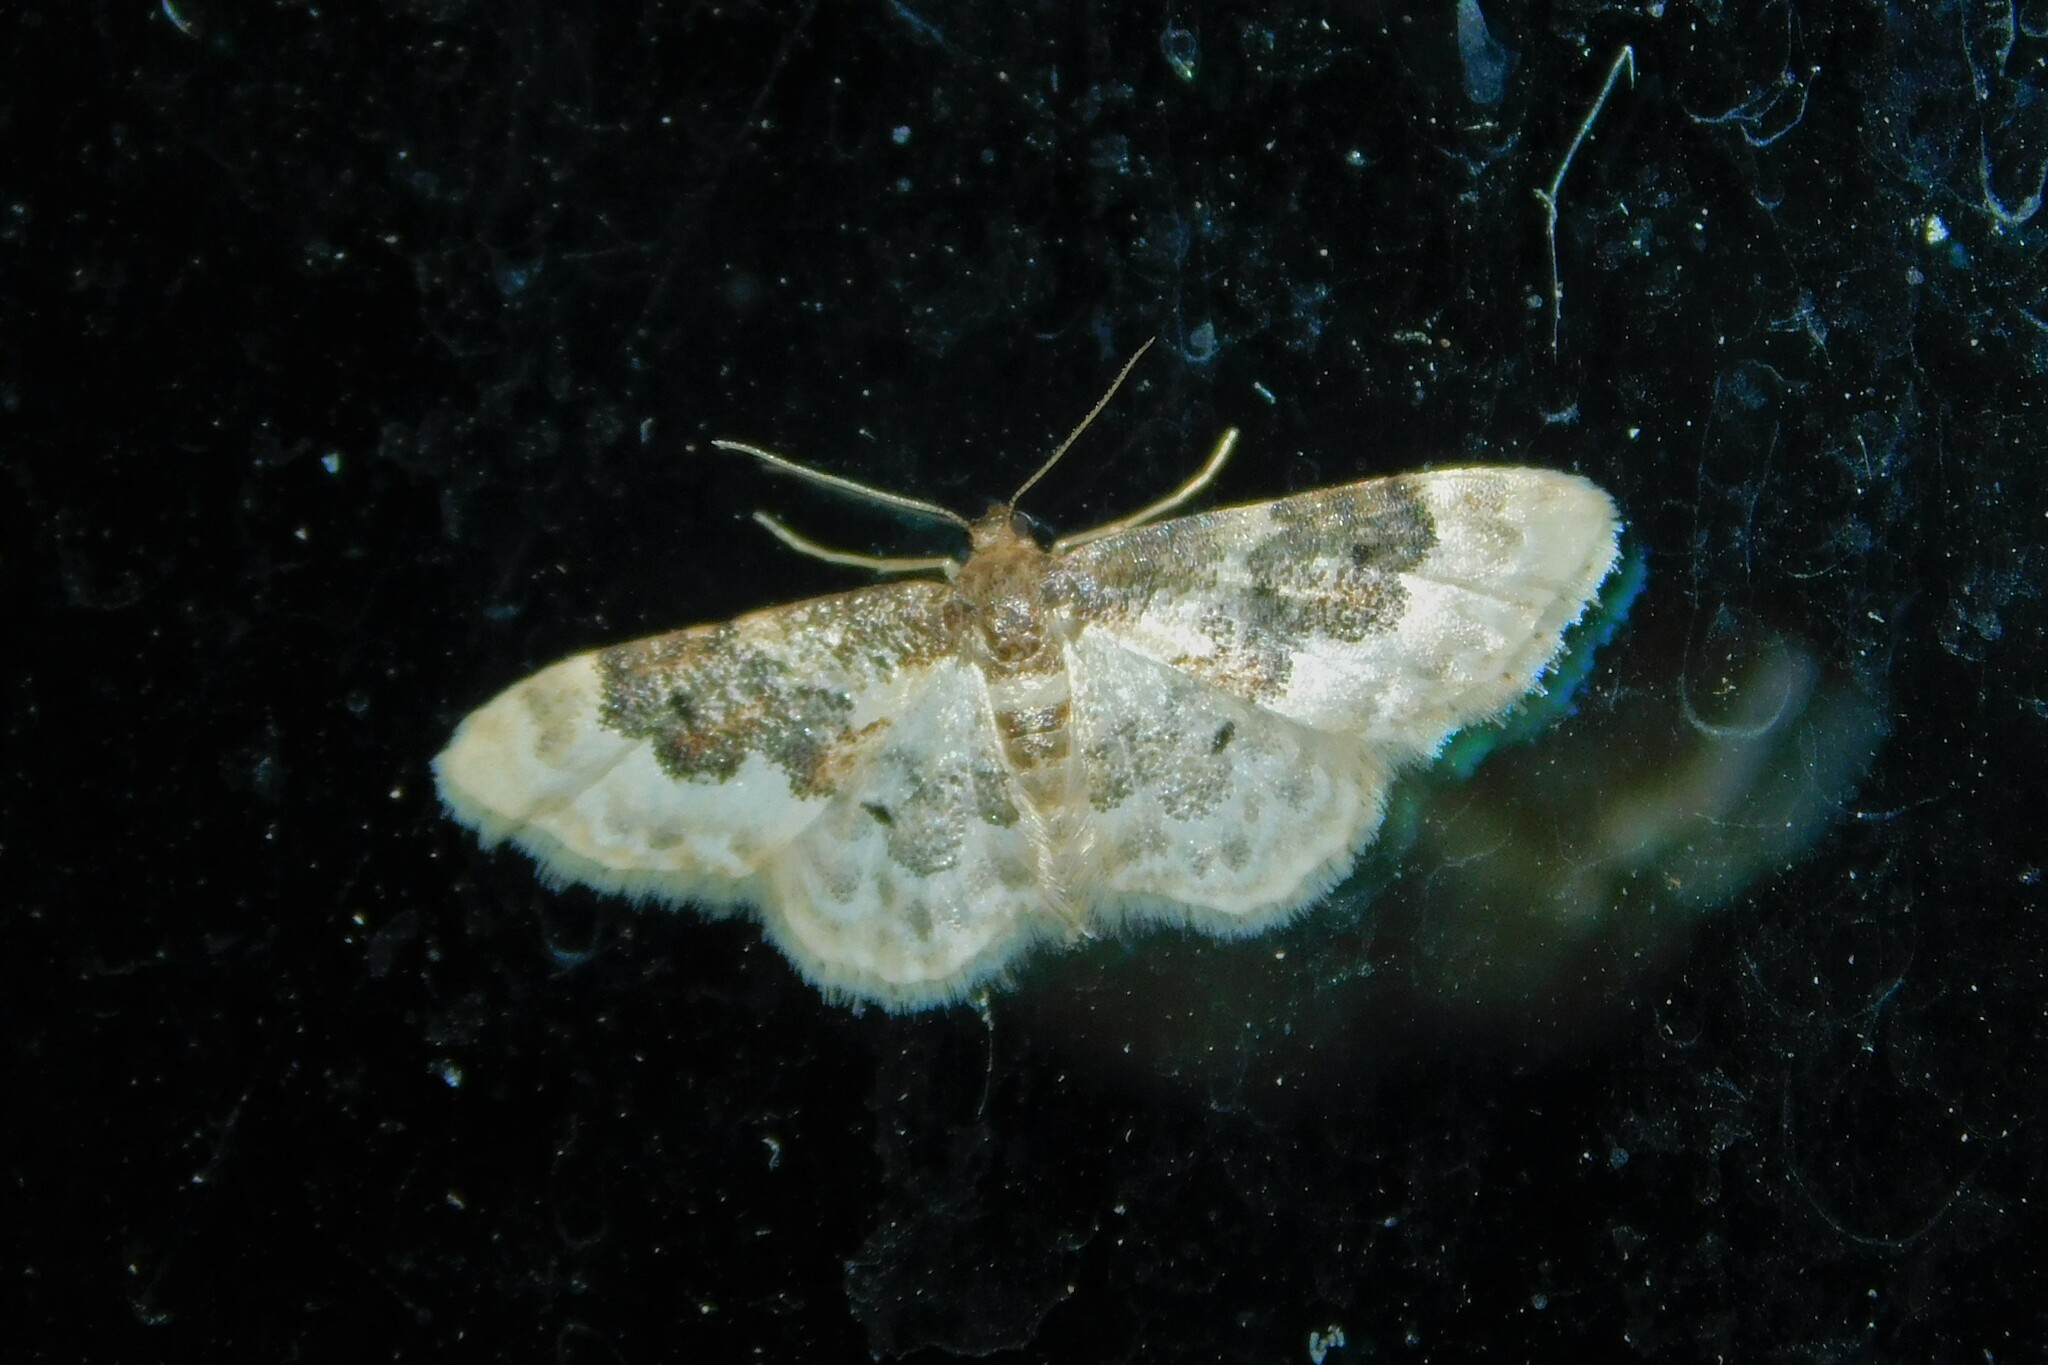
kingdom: Animalia
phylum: Arthropoda
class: Insecta
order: Lepidoptera
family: Geometridae
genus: Idaea
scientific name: Idaea rusticata
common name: Least carpet
